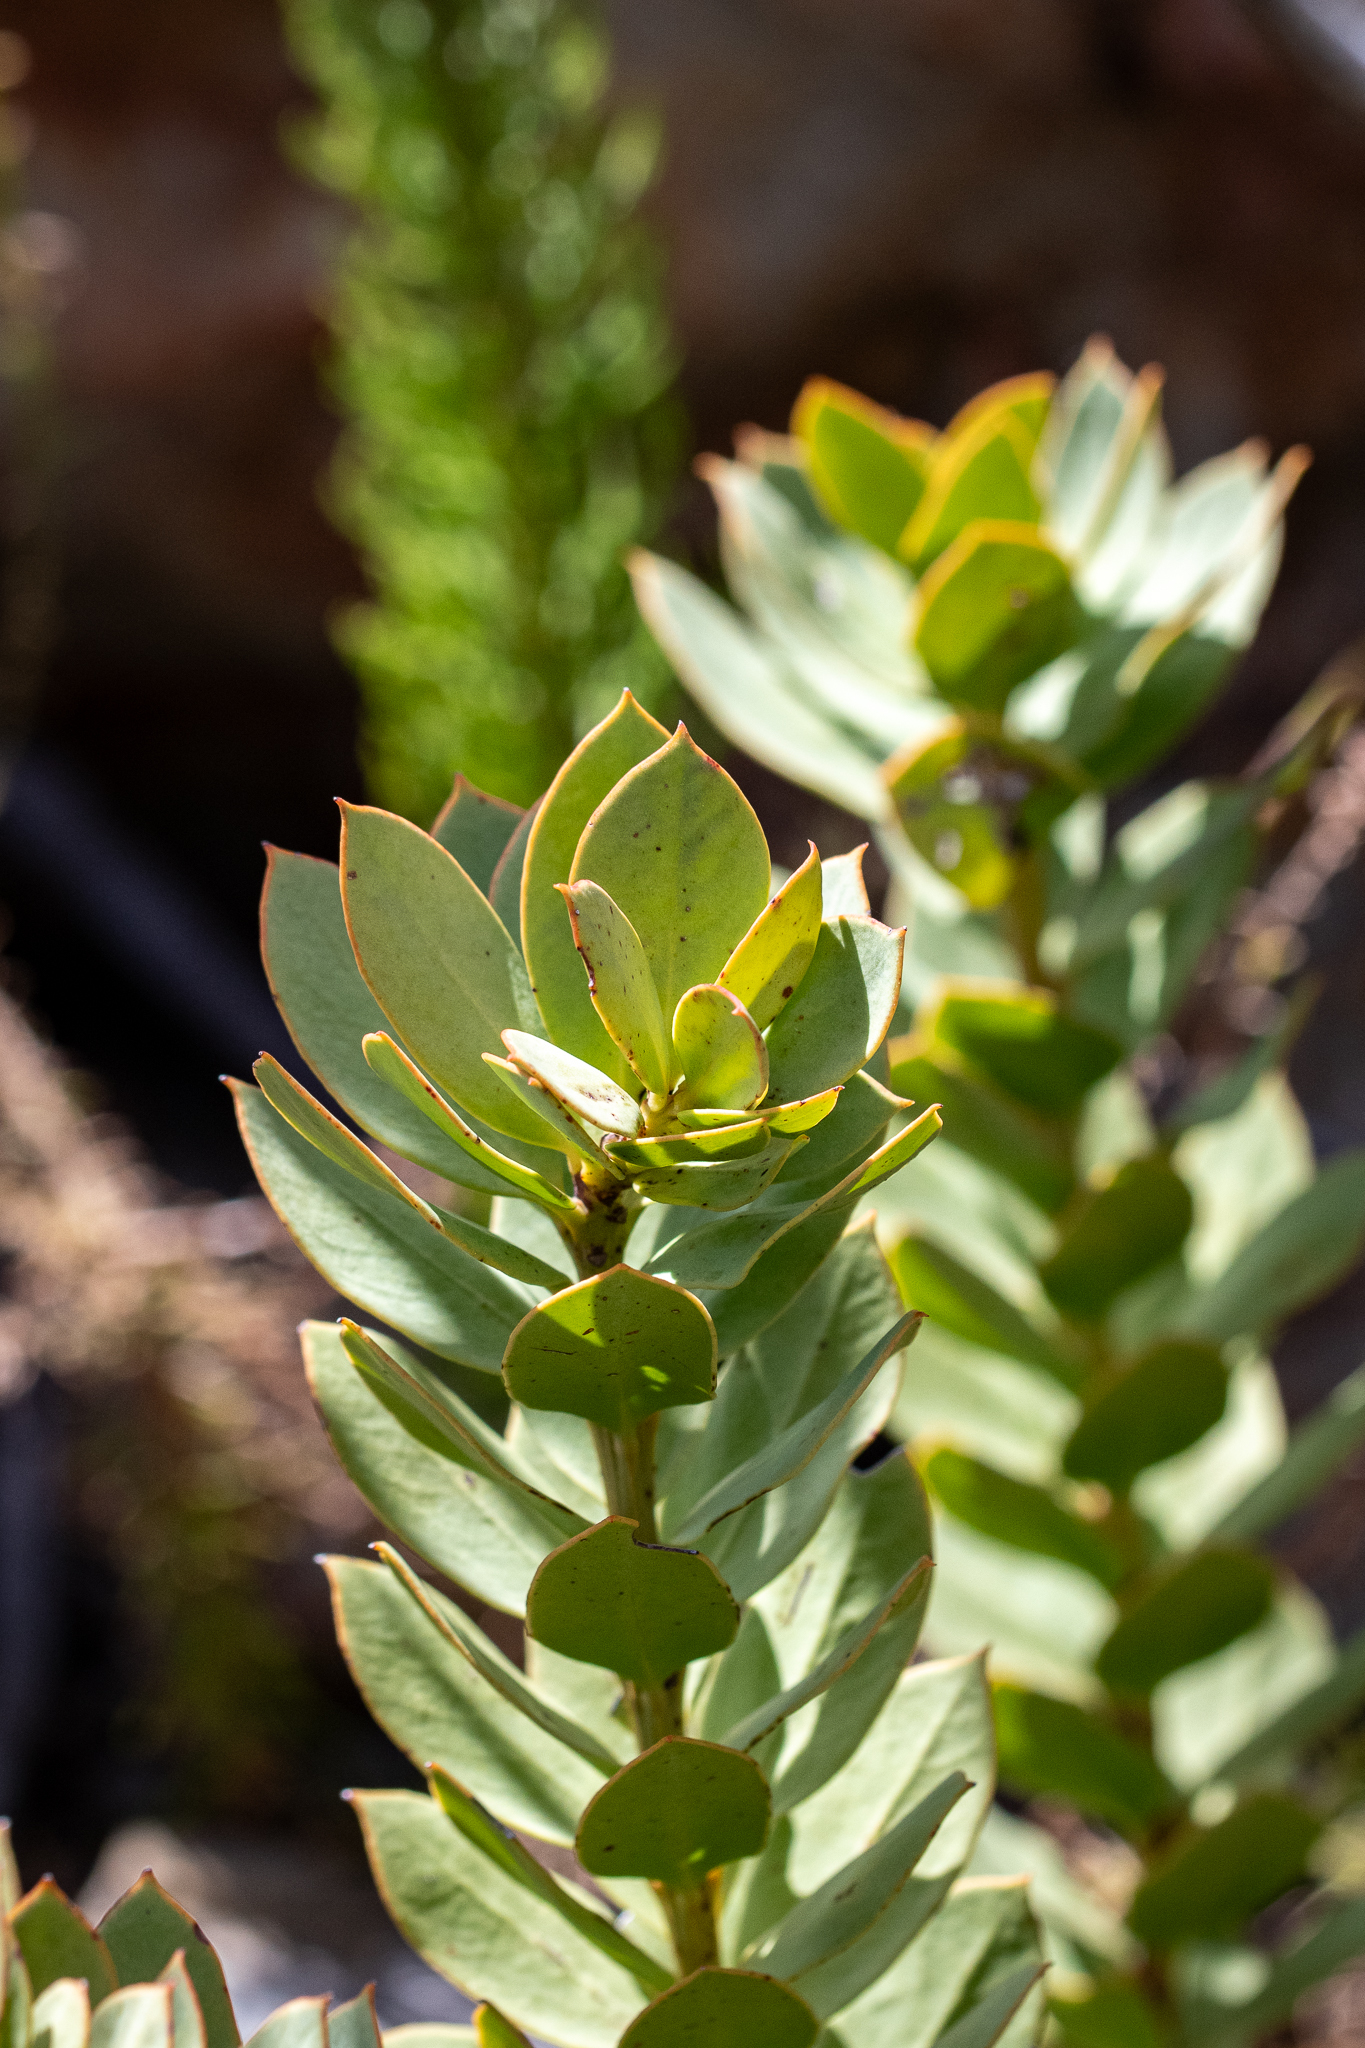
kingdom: Plantae
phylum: Tracheophyta
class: Magnoliopsida
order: Santalales
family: Santalaceae
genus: Osyris
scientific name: Osyris compressa
